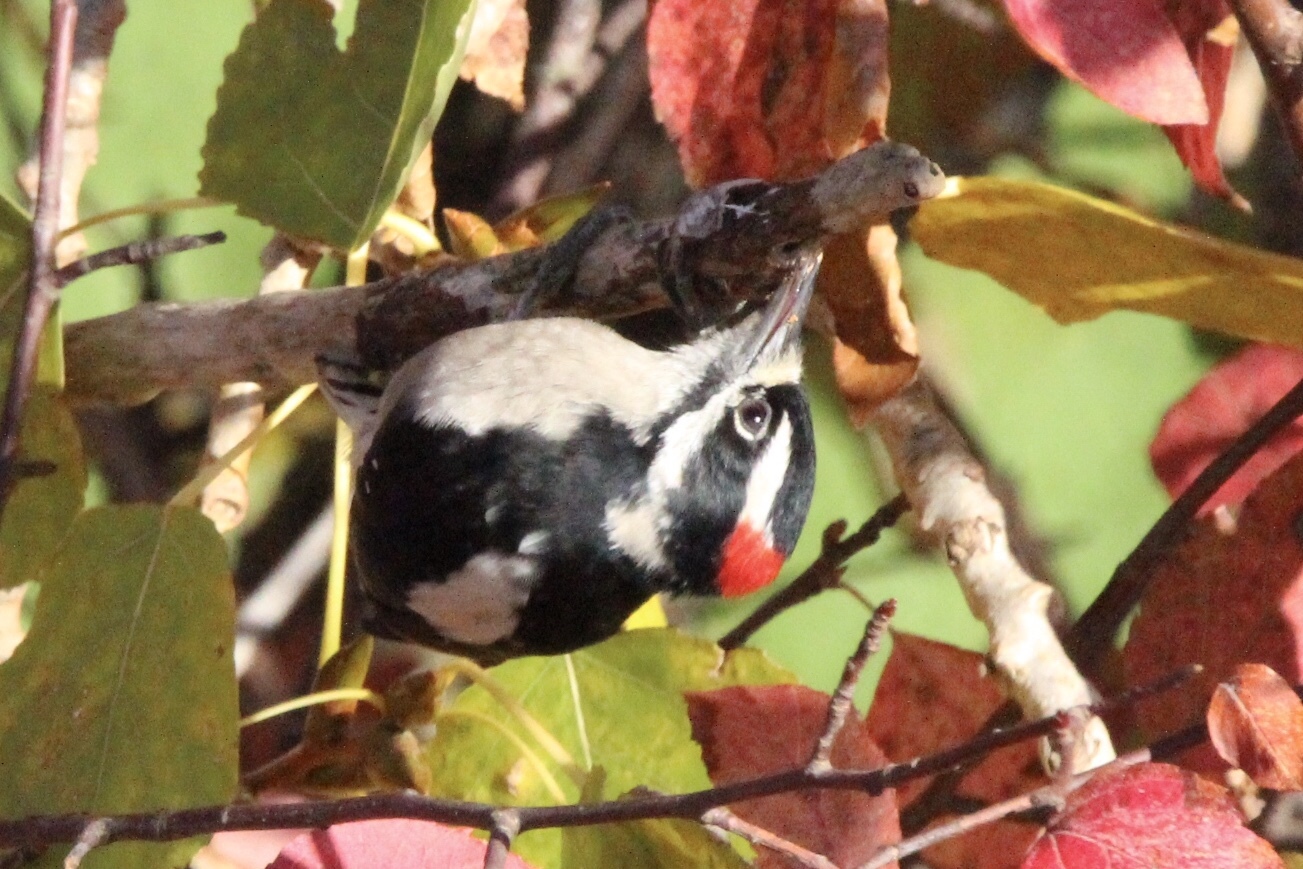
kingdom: Animalia
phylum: Chordata
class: Aves
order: Piciformes
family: Picidae
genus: Dryobates
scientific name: Dryobates pubescens
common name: Downy woodpecker
